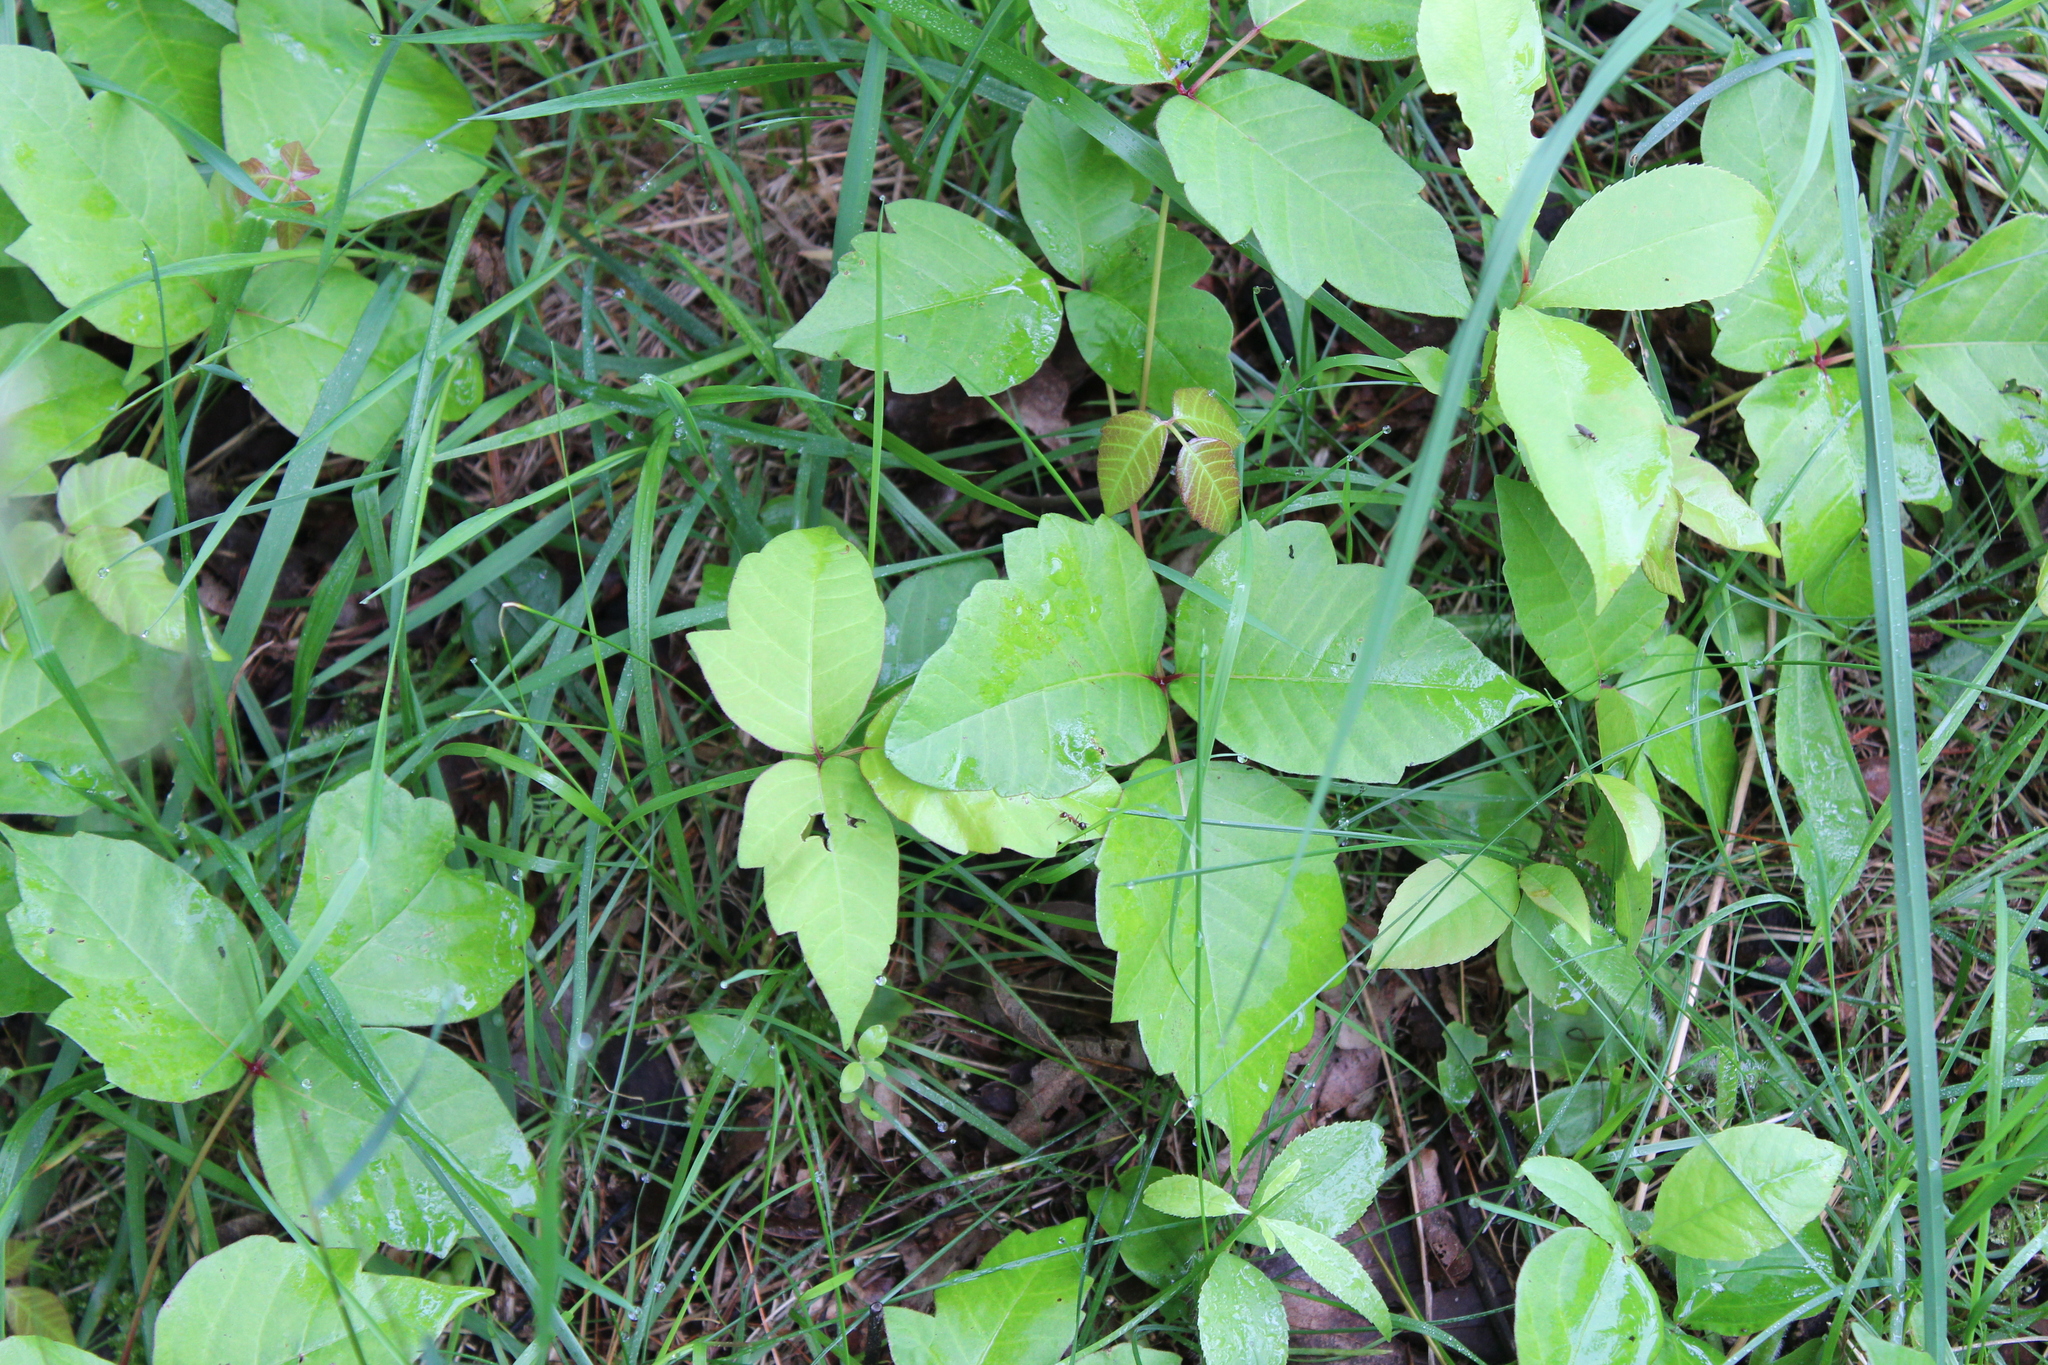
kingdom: Plantae
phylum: Tracheophyta
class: Magnoliopsida
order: Sapindales
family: Anacardiaceae
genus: Toxicodendron
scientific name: Toxicodendron radicans
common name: Poison ivy
